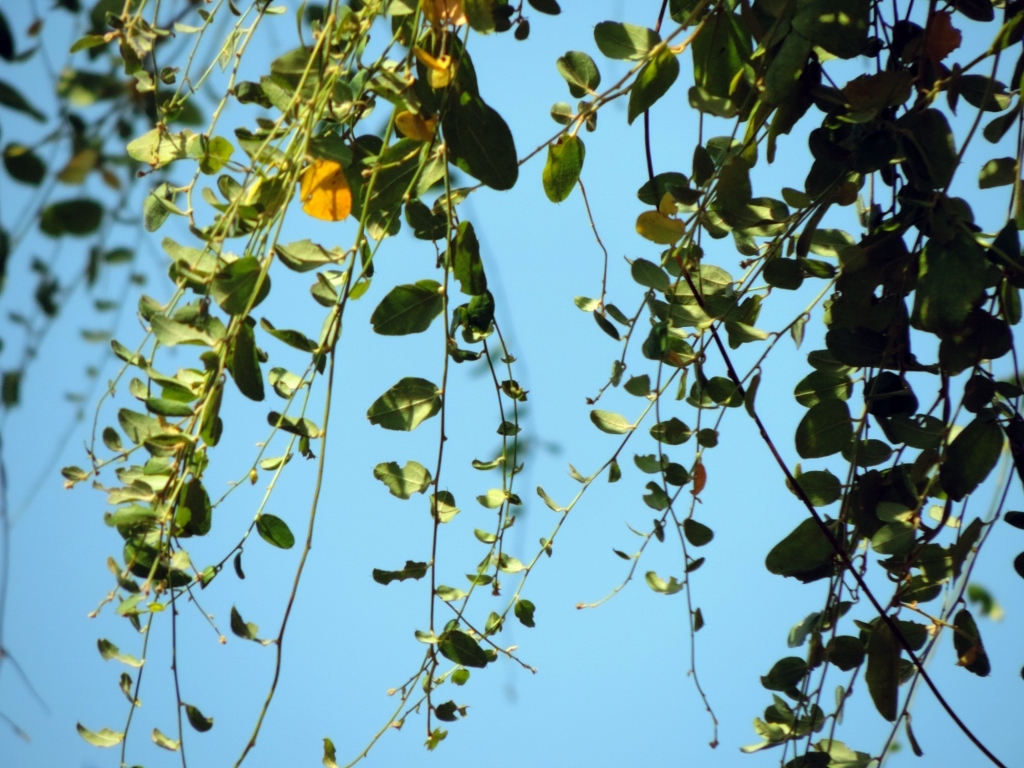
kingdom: Plantae
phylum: Tracheophyta
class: Magnoliopsida
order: Ranunculales
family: Menispermaceae
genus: Cocculus
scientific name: Cocculus hirsutus
